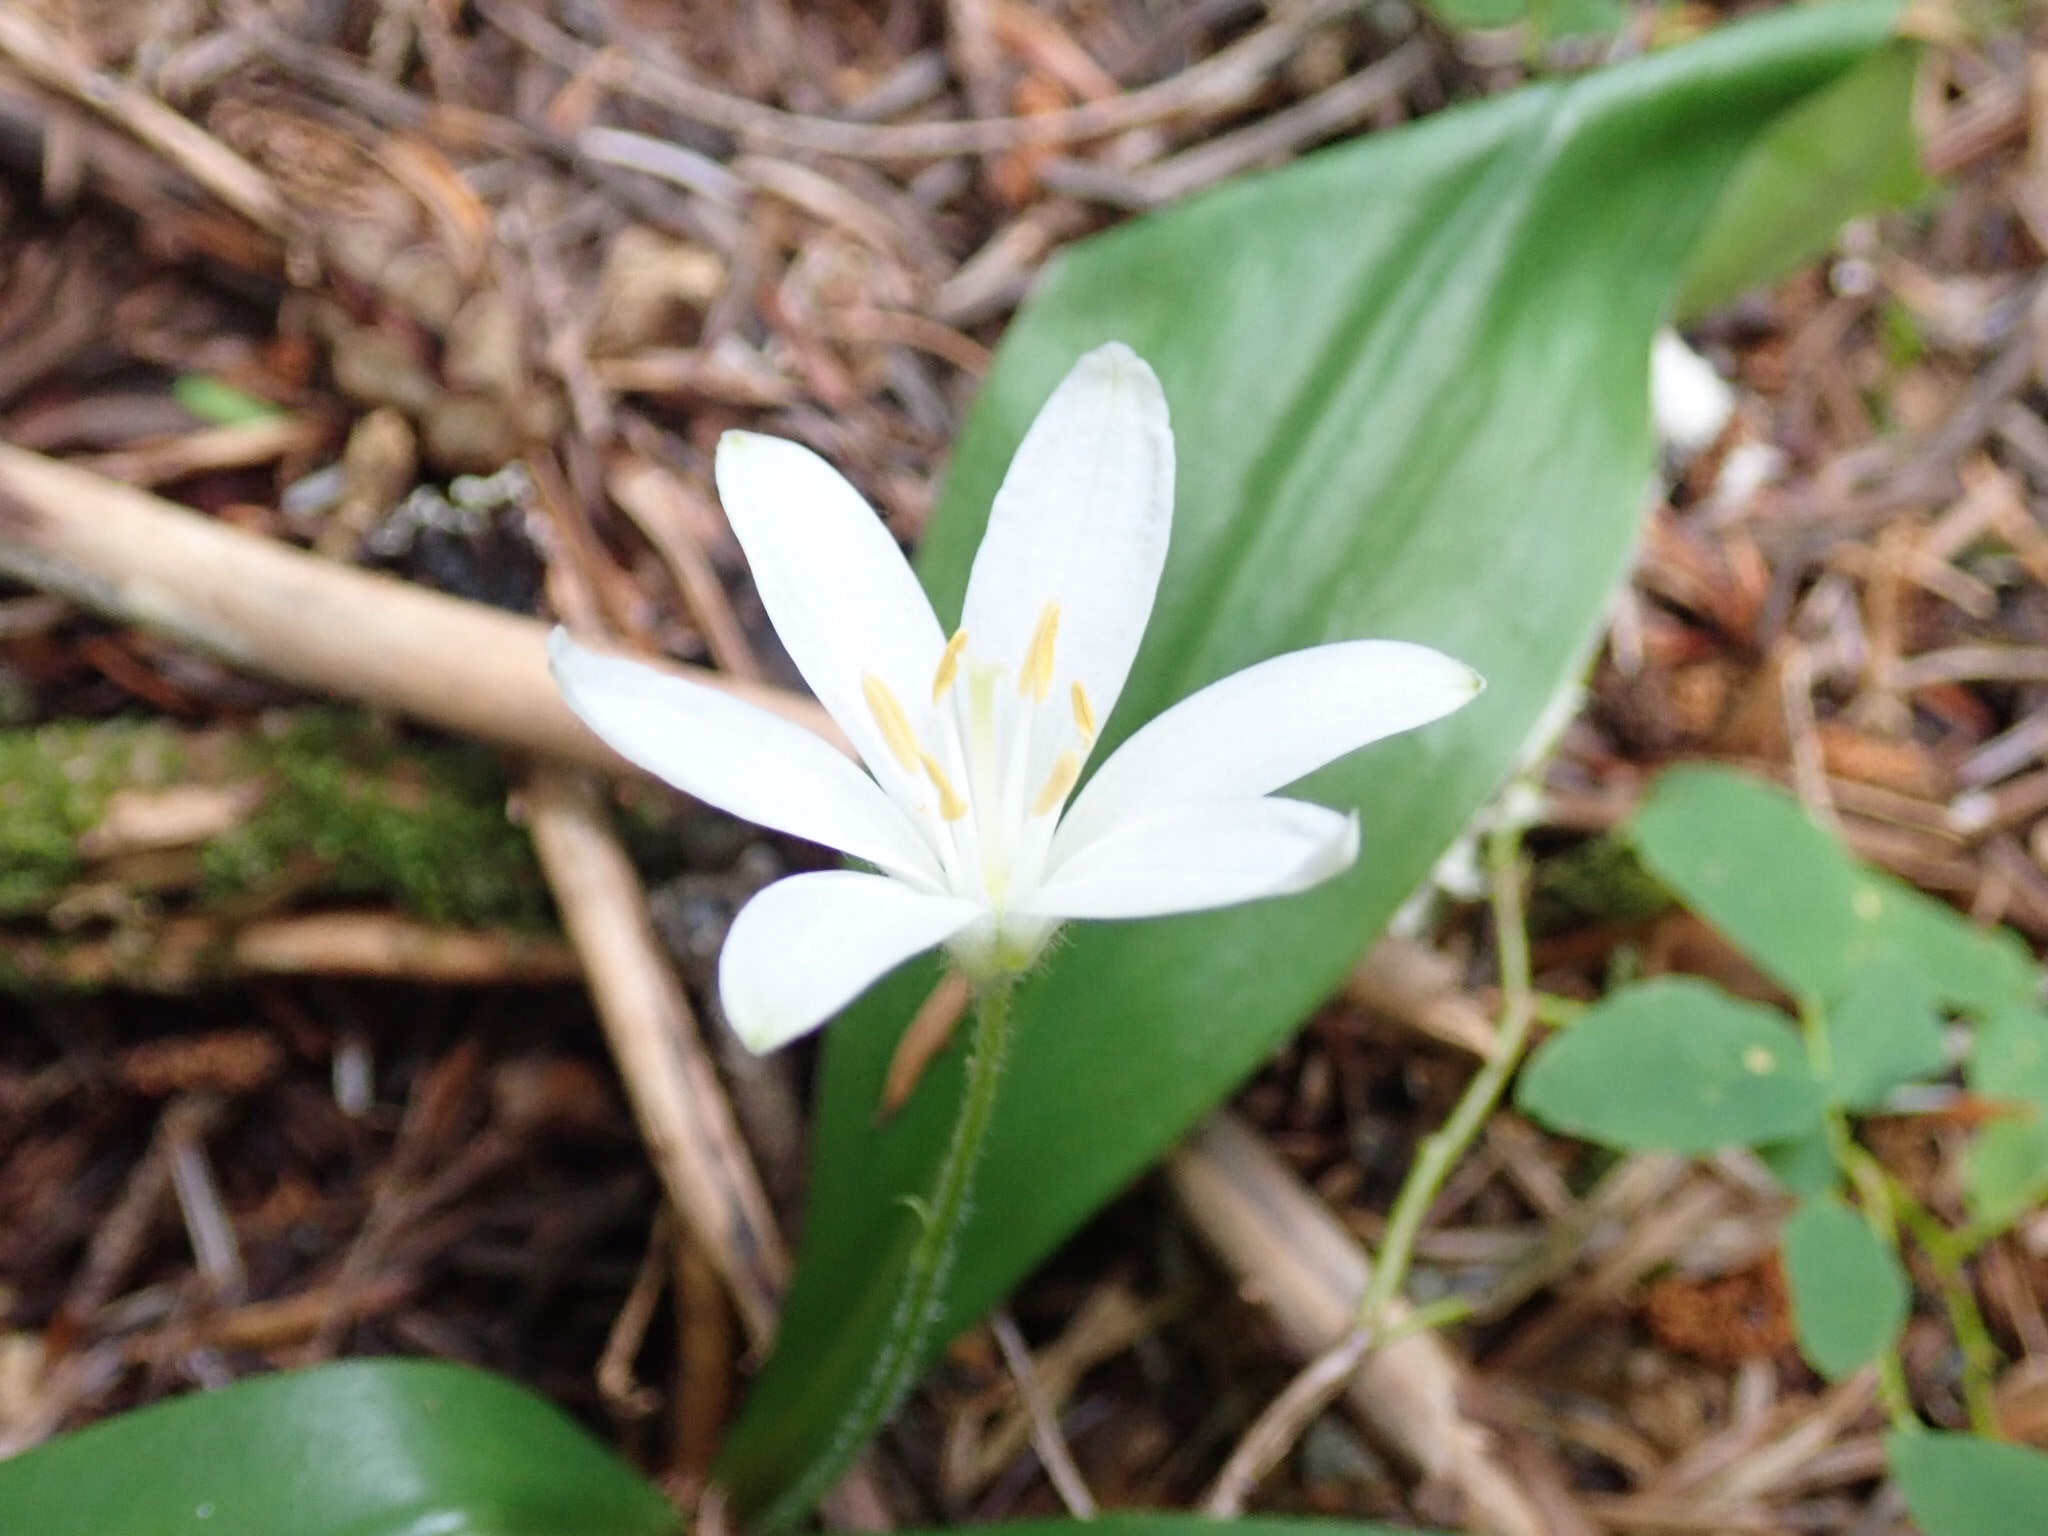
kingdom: Plantae
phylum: Tracheophyta
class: Liliopsida
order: Liliales
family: Liliaceae
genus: Clintonia
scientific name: Clintonia uniflora
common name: Queen's cup
